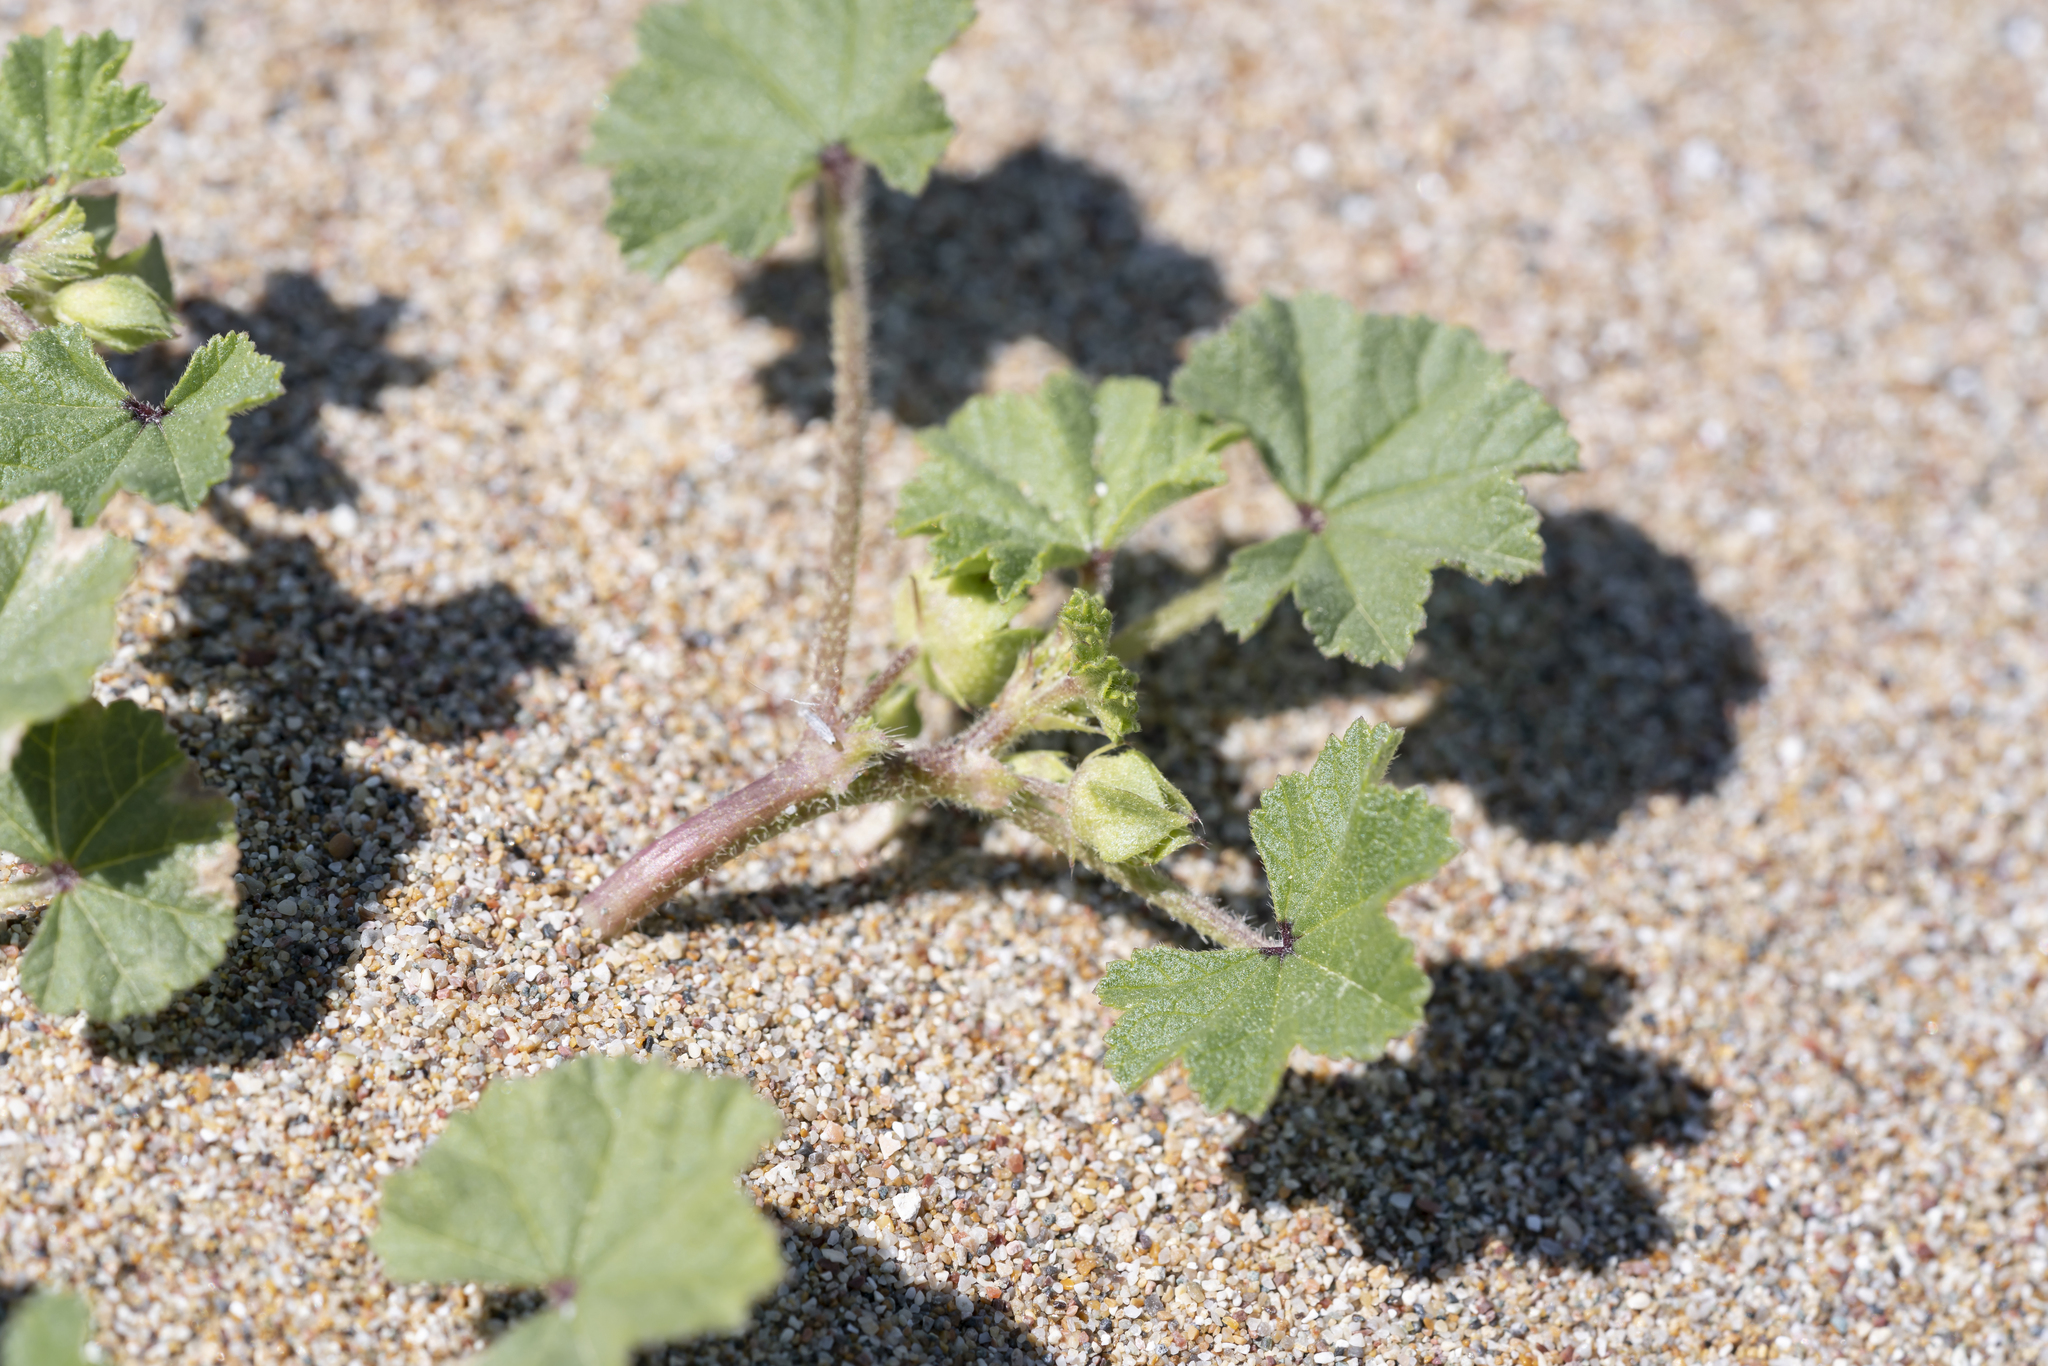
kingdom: Plantae
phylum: Tracheophyta
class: Magnoliopsida
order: Malvales
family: Malvaceae
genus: Malva
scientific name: Malva parviflora
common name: Least mallow
